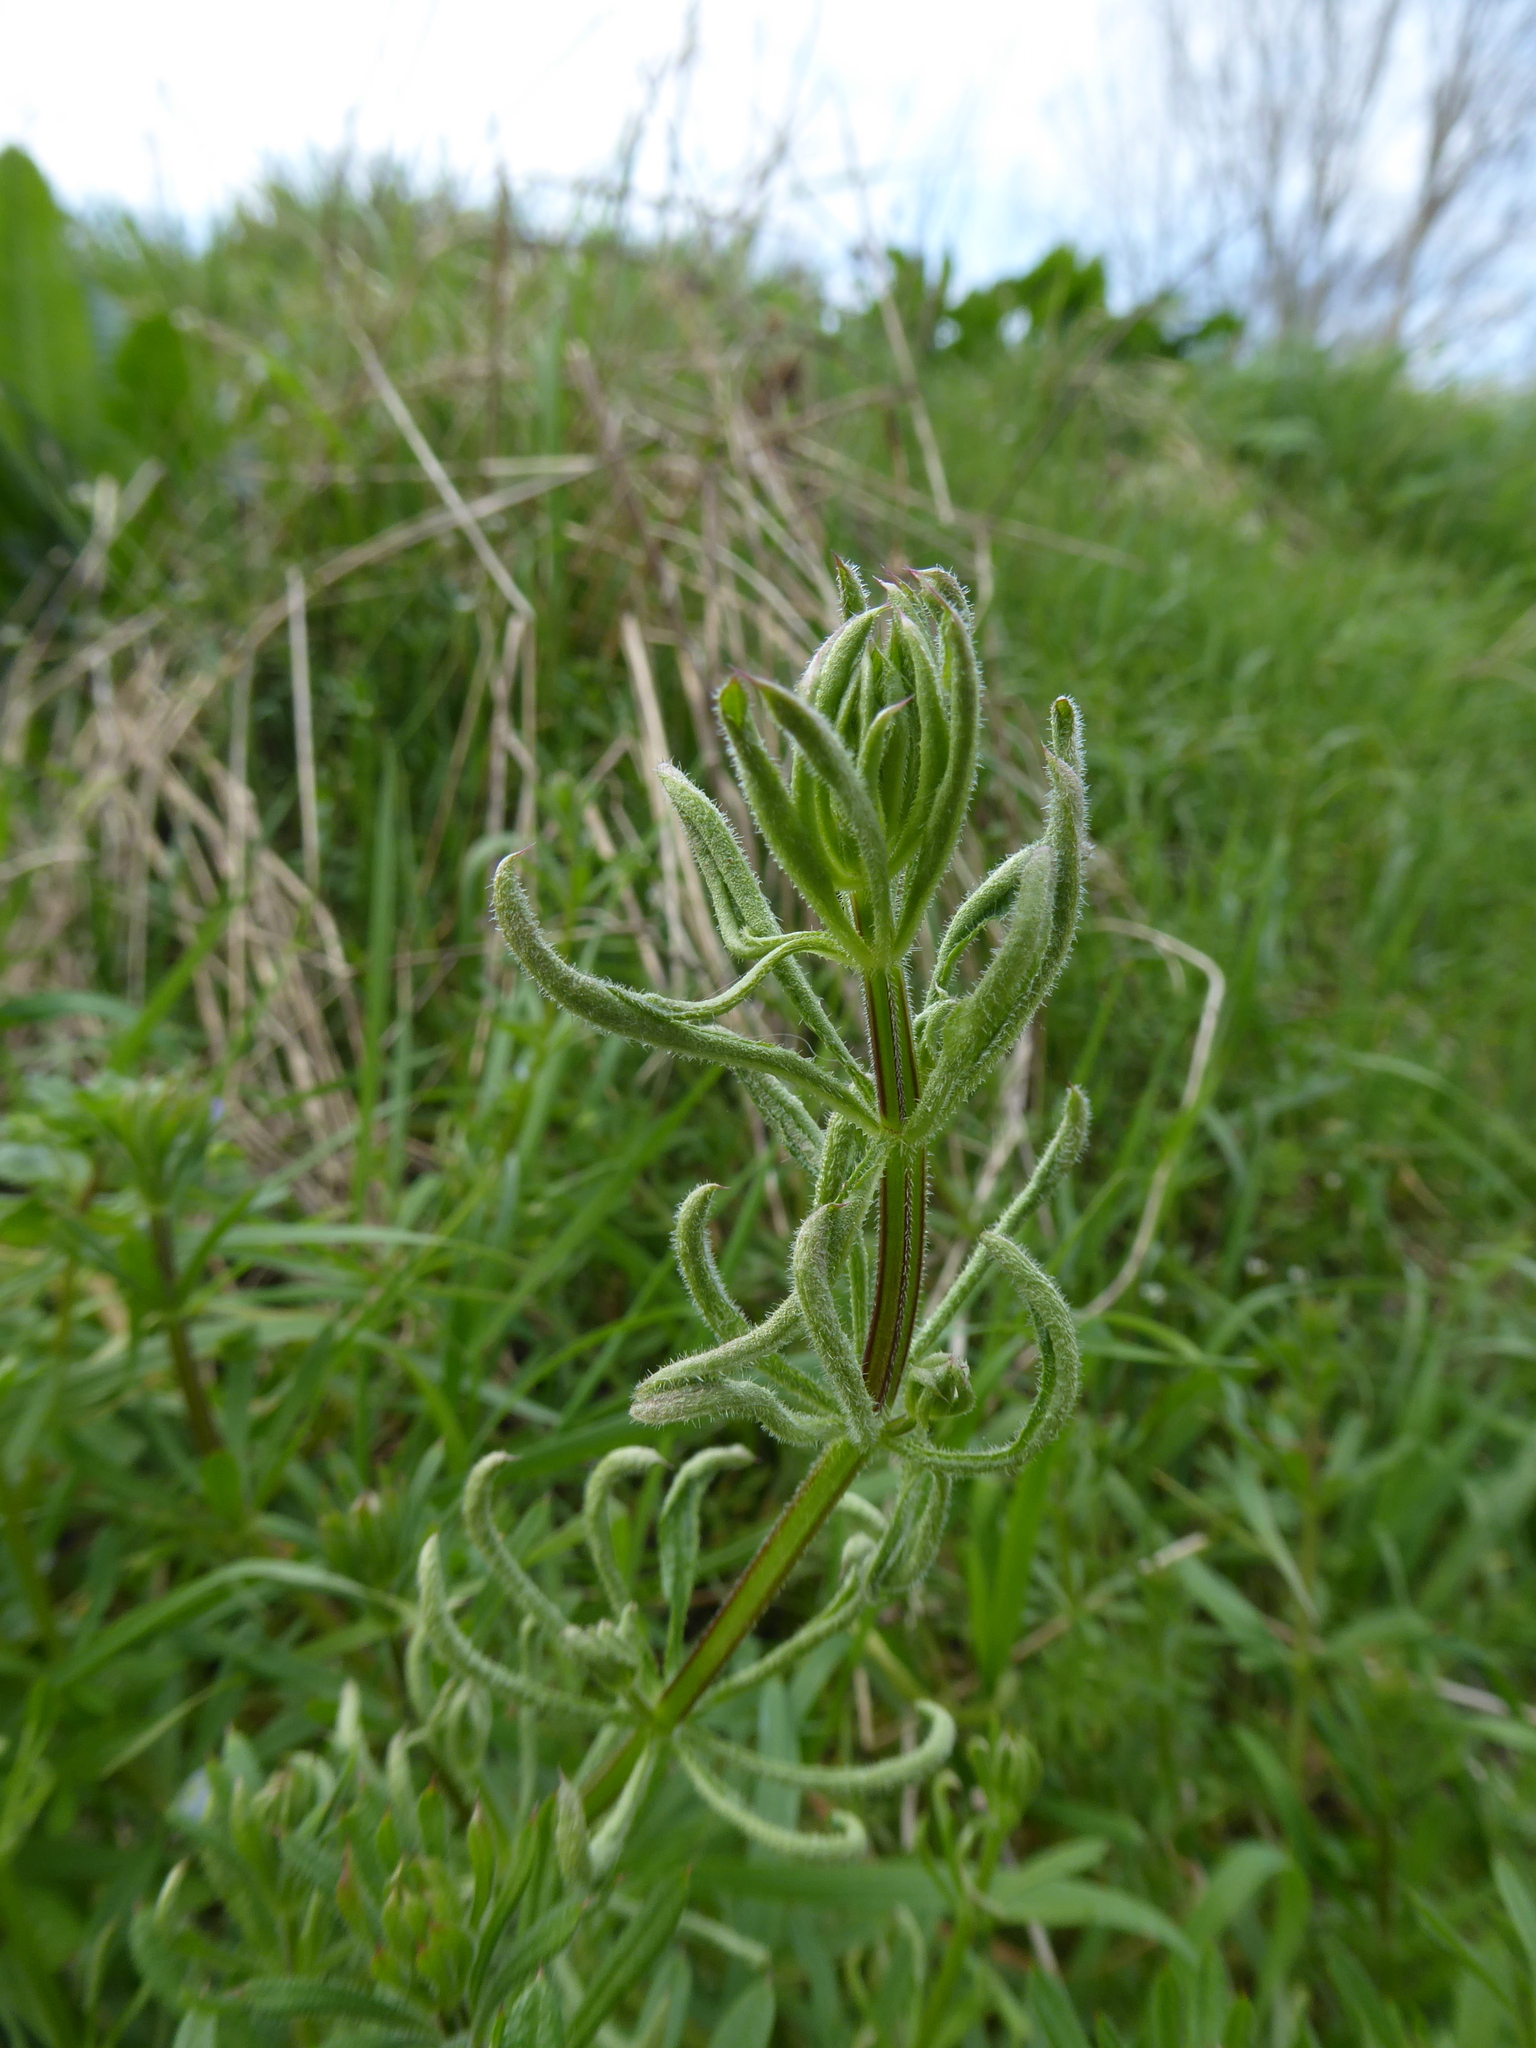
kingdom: Plantae
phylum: Tracheophyta
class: Magnoliopsida
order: Gentianales
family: Rubiaceae
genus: Galium
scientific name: Galium aparine
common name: Cleavers
